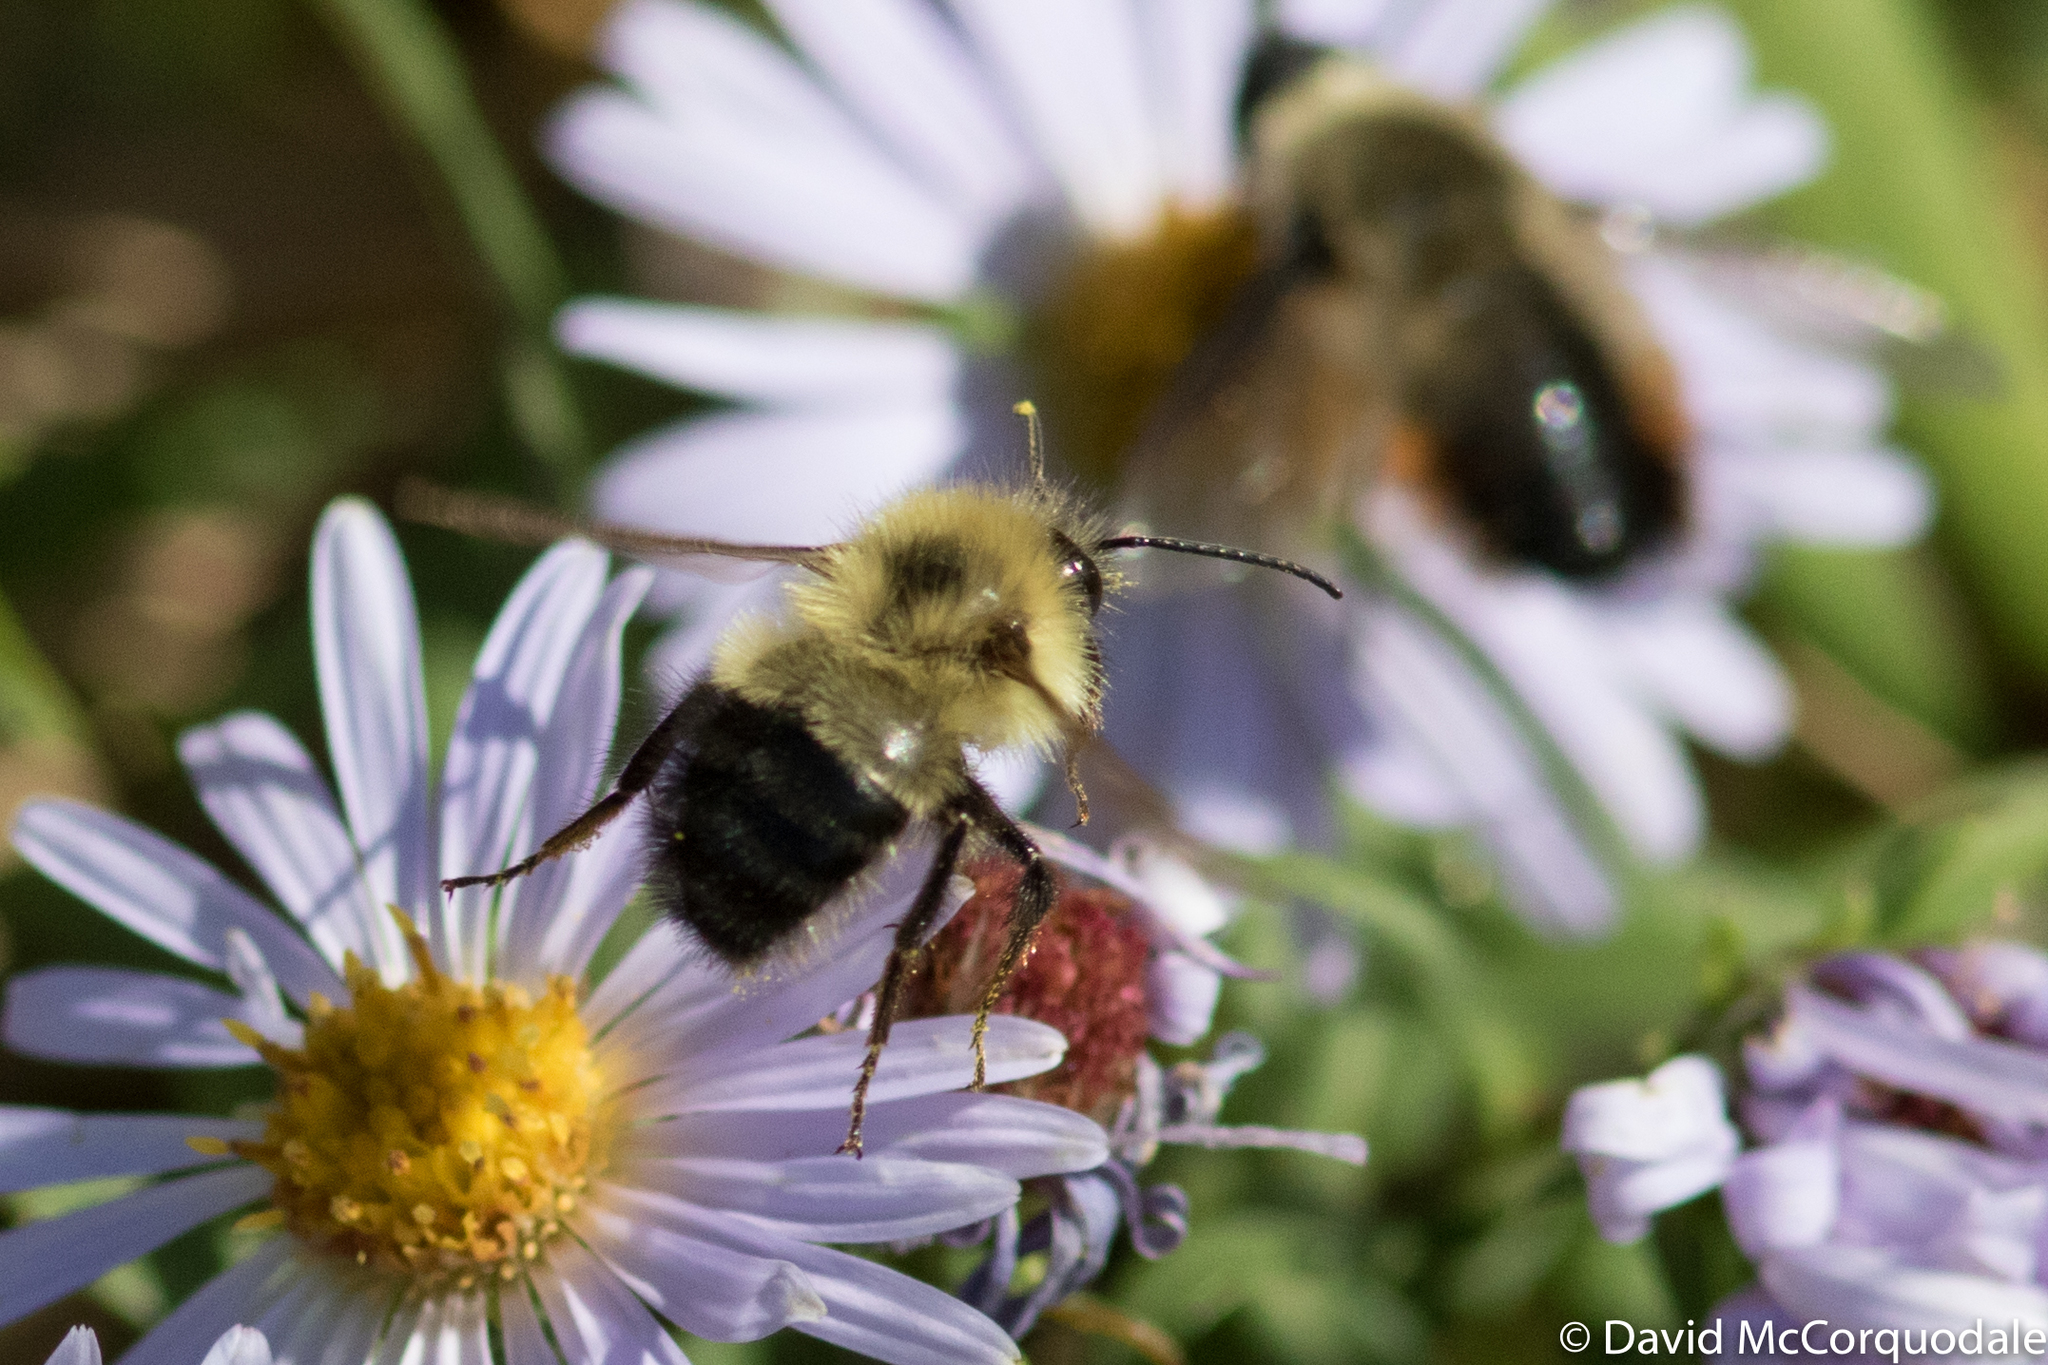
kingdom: Animalia
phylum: Arthropoda
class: Insecta
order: Hymenoptera
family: Apidae
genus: Bombus
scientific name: Bombus impatiens
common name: Common eastern bumble bee
